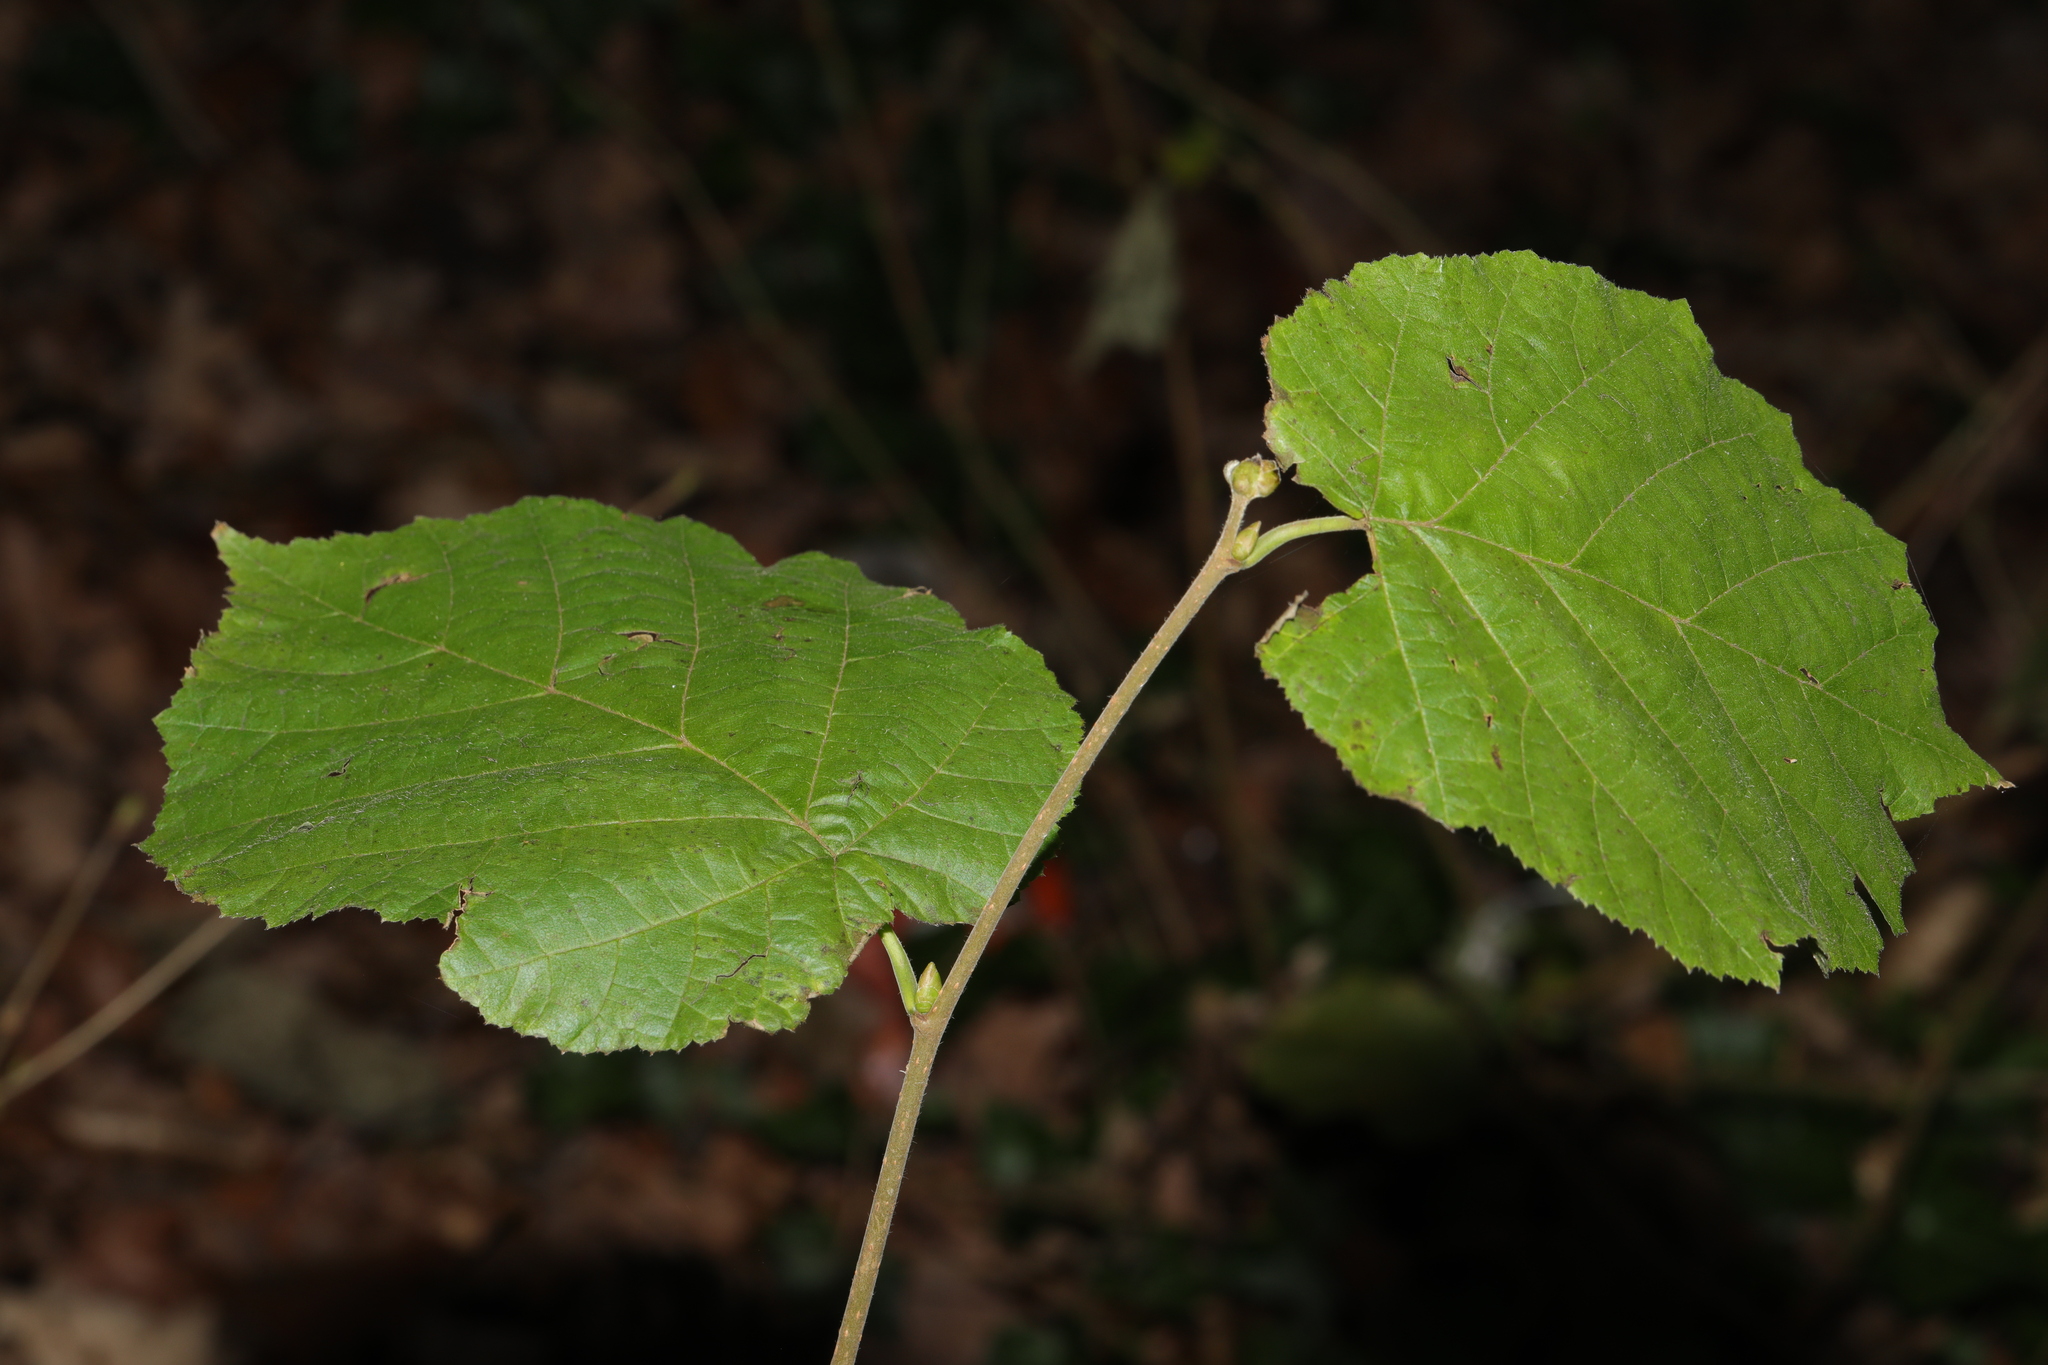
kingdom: Plantae
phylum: Tracheophyta
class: Magnoliopsida
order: Fagales
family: Betulaceae
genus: Corylus
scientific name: Corylus avellana
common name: European hazel
